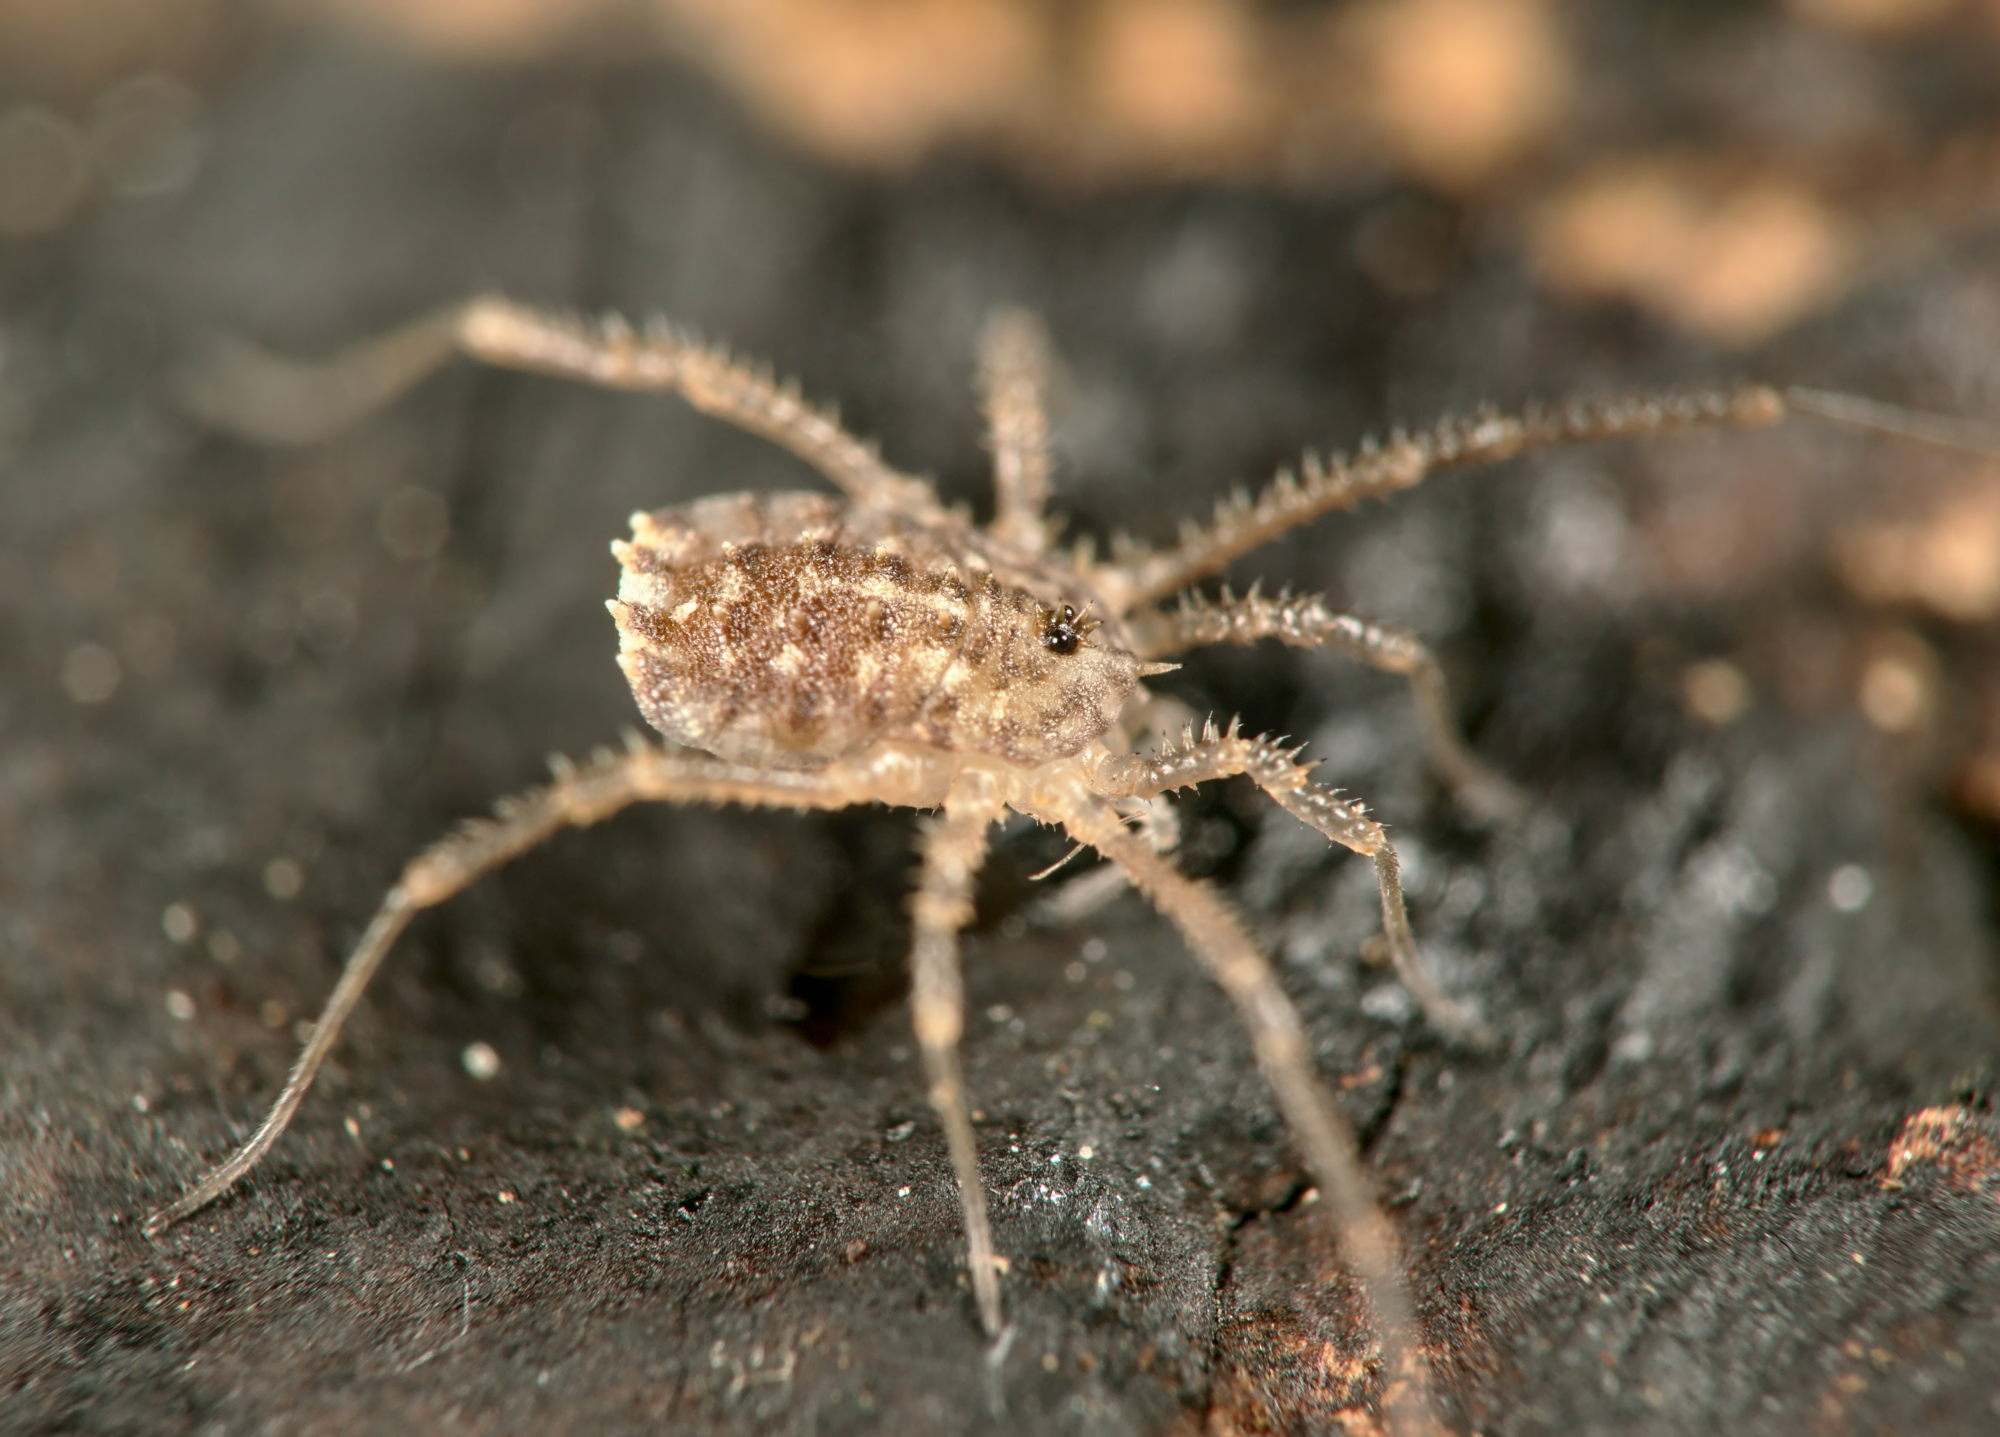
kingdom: Animalia
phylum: Arthropoda
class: Arachnida
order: Opiliones
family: Sclerosomatidae
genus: Homalenotus
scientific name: Homalenotus quadridentatus
